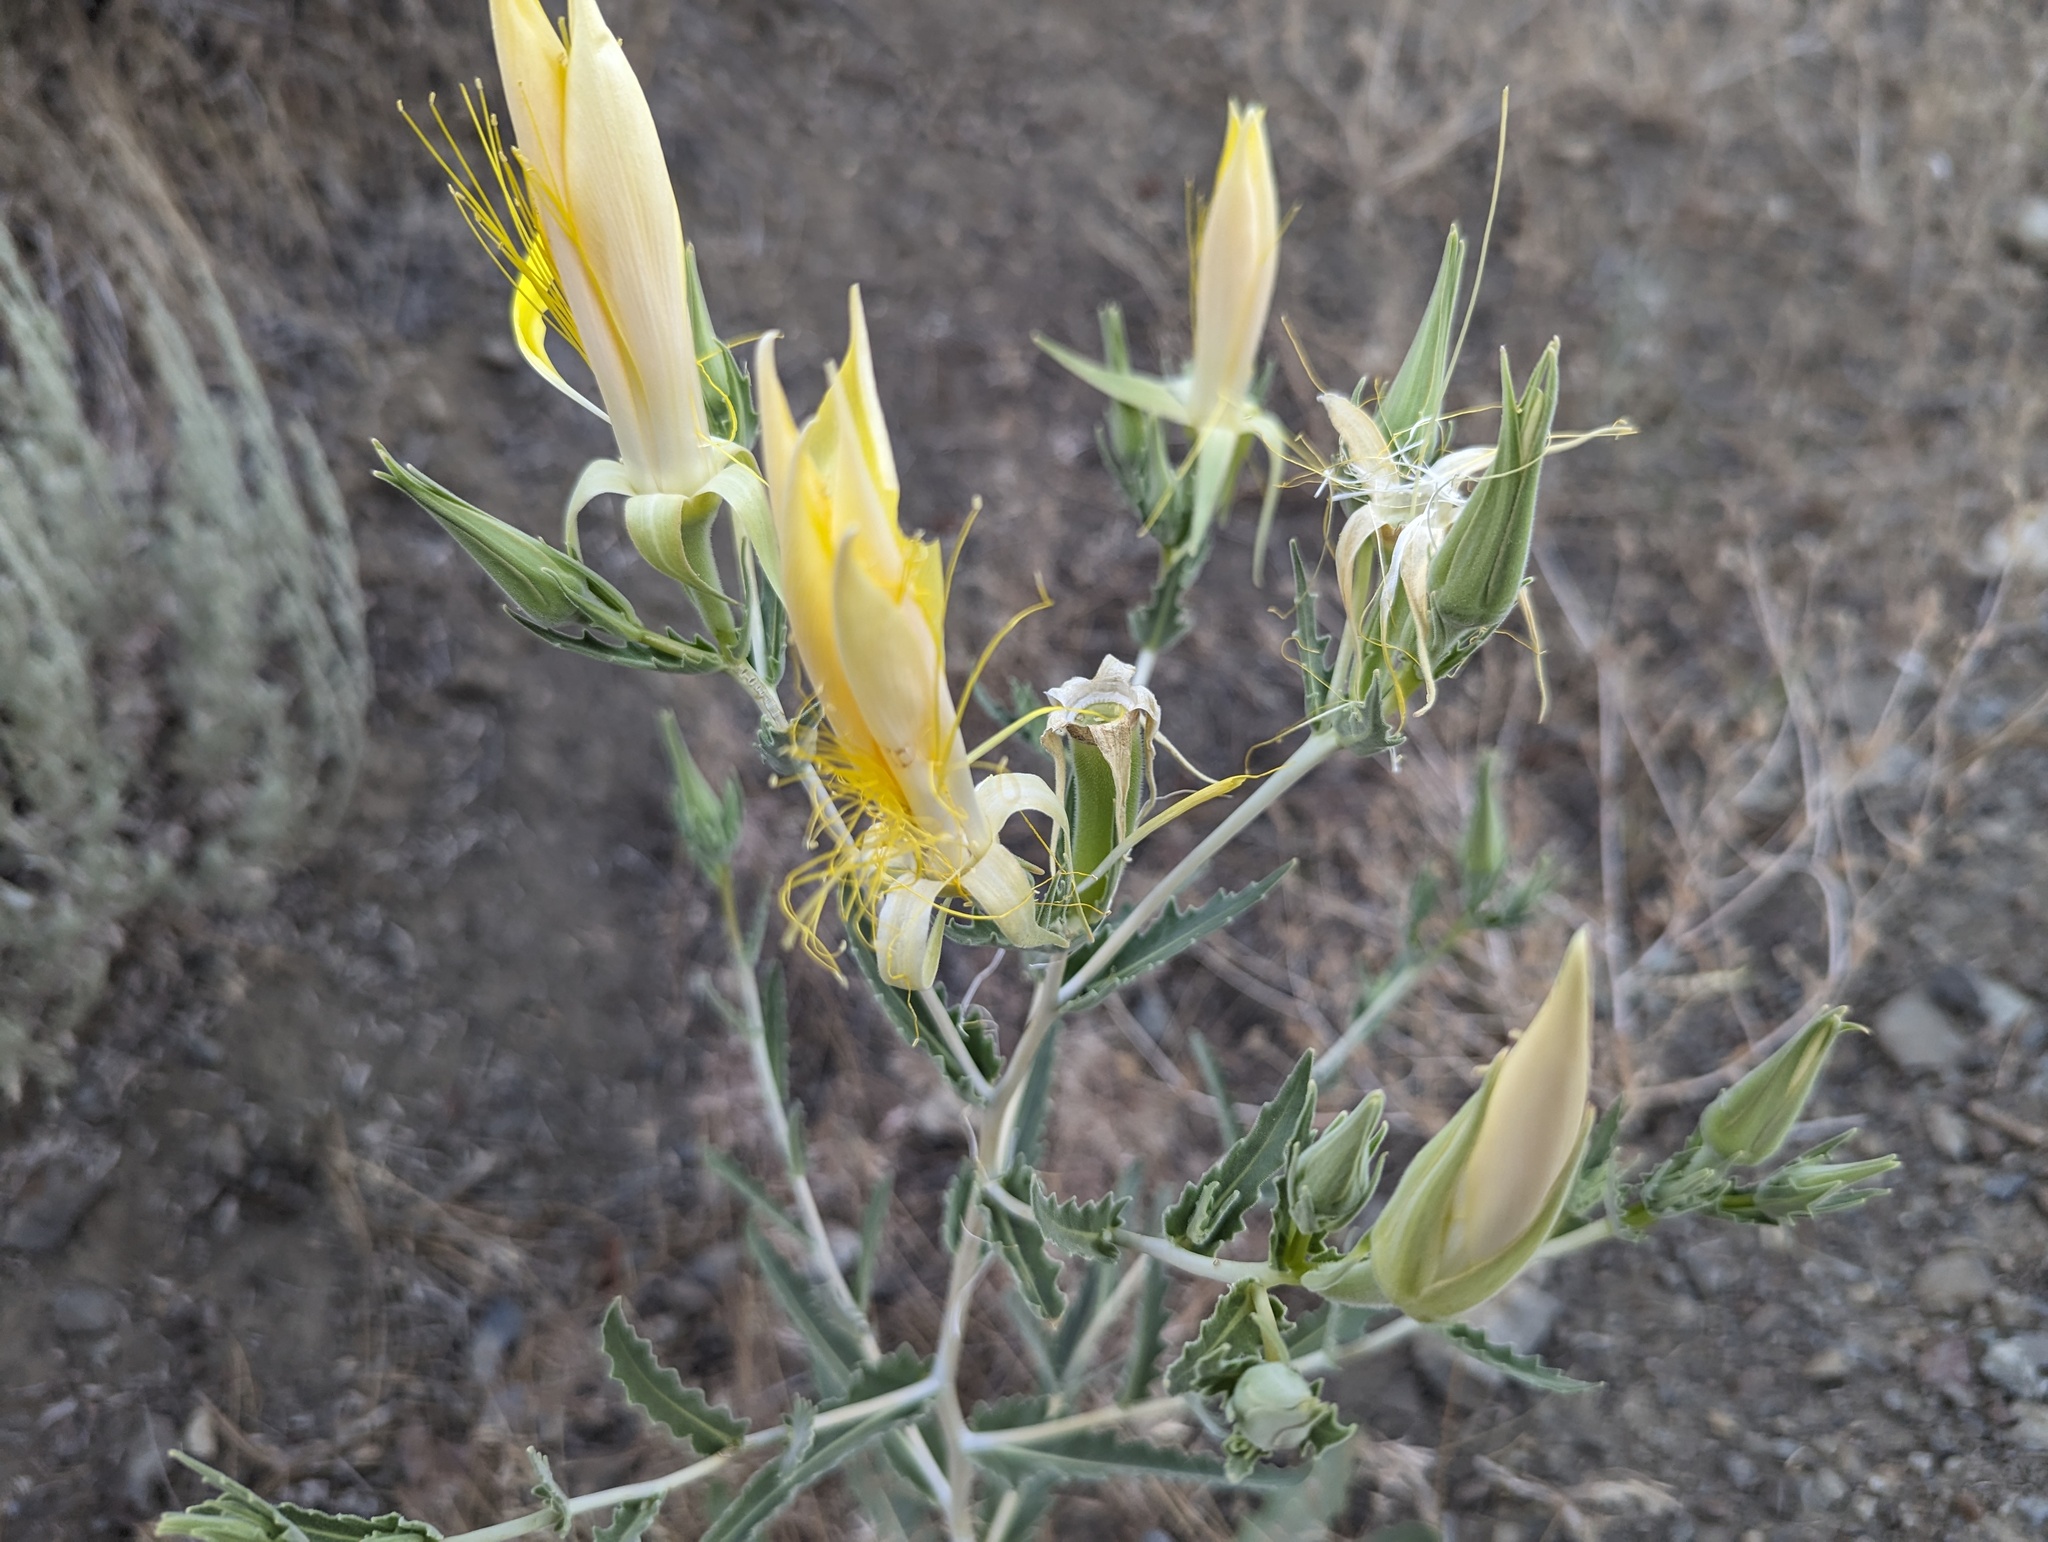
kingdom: Plantae
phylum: Tracheophyta
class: Magnoliopsida
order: Cornales
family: Loasaceae
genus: Mentzelia
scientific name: Mentzelia laevicaulis
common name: Smooth-stem blazingstar
